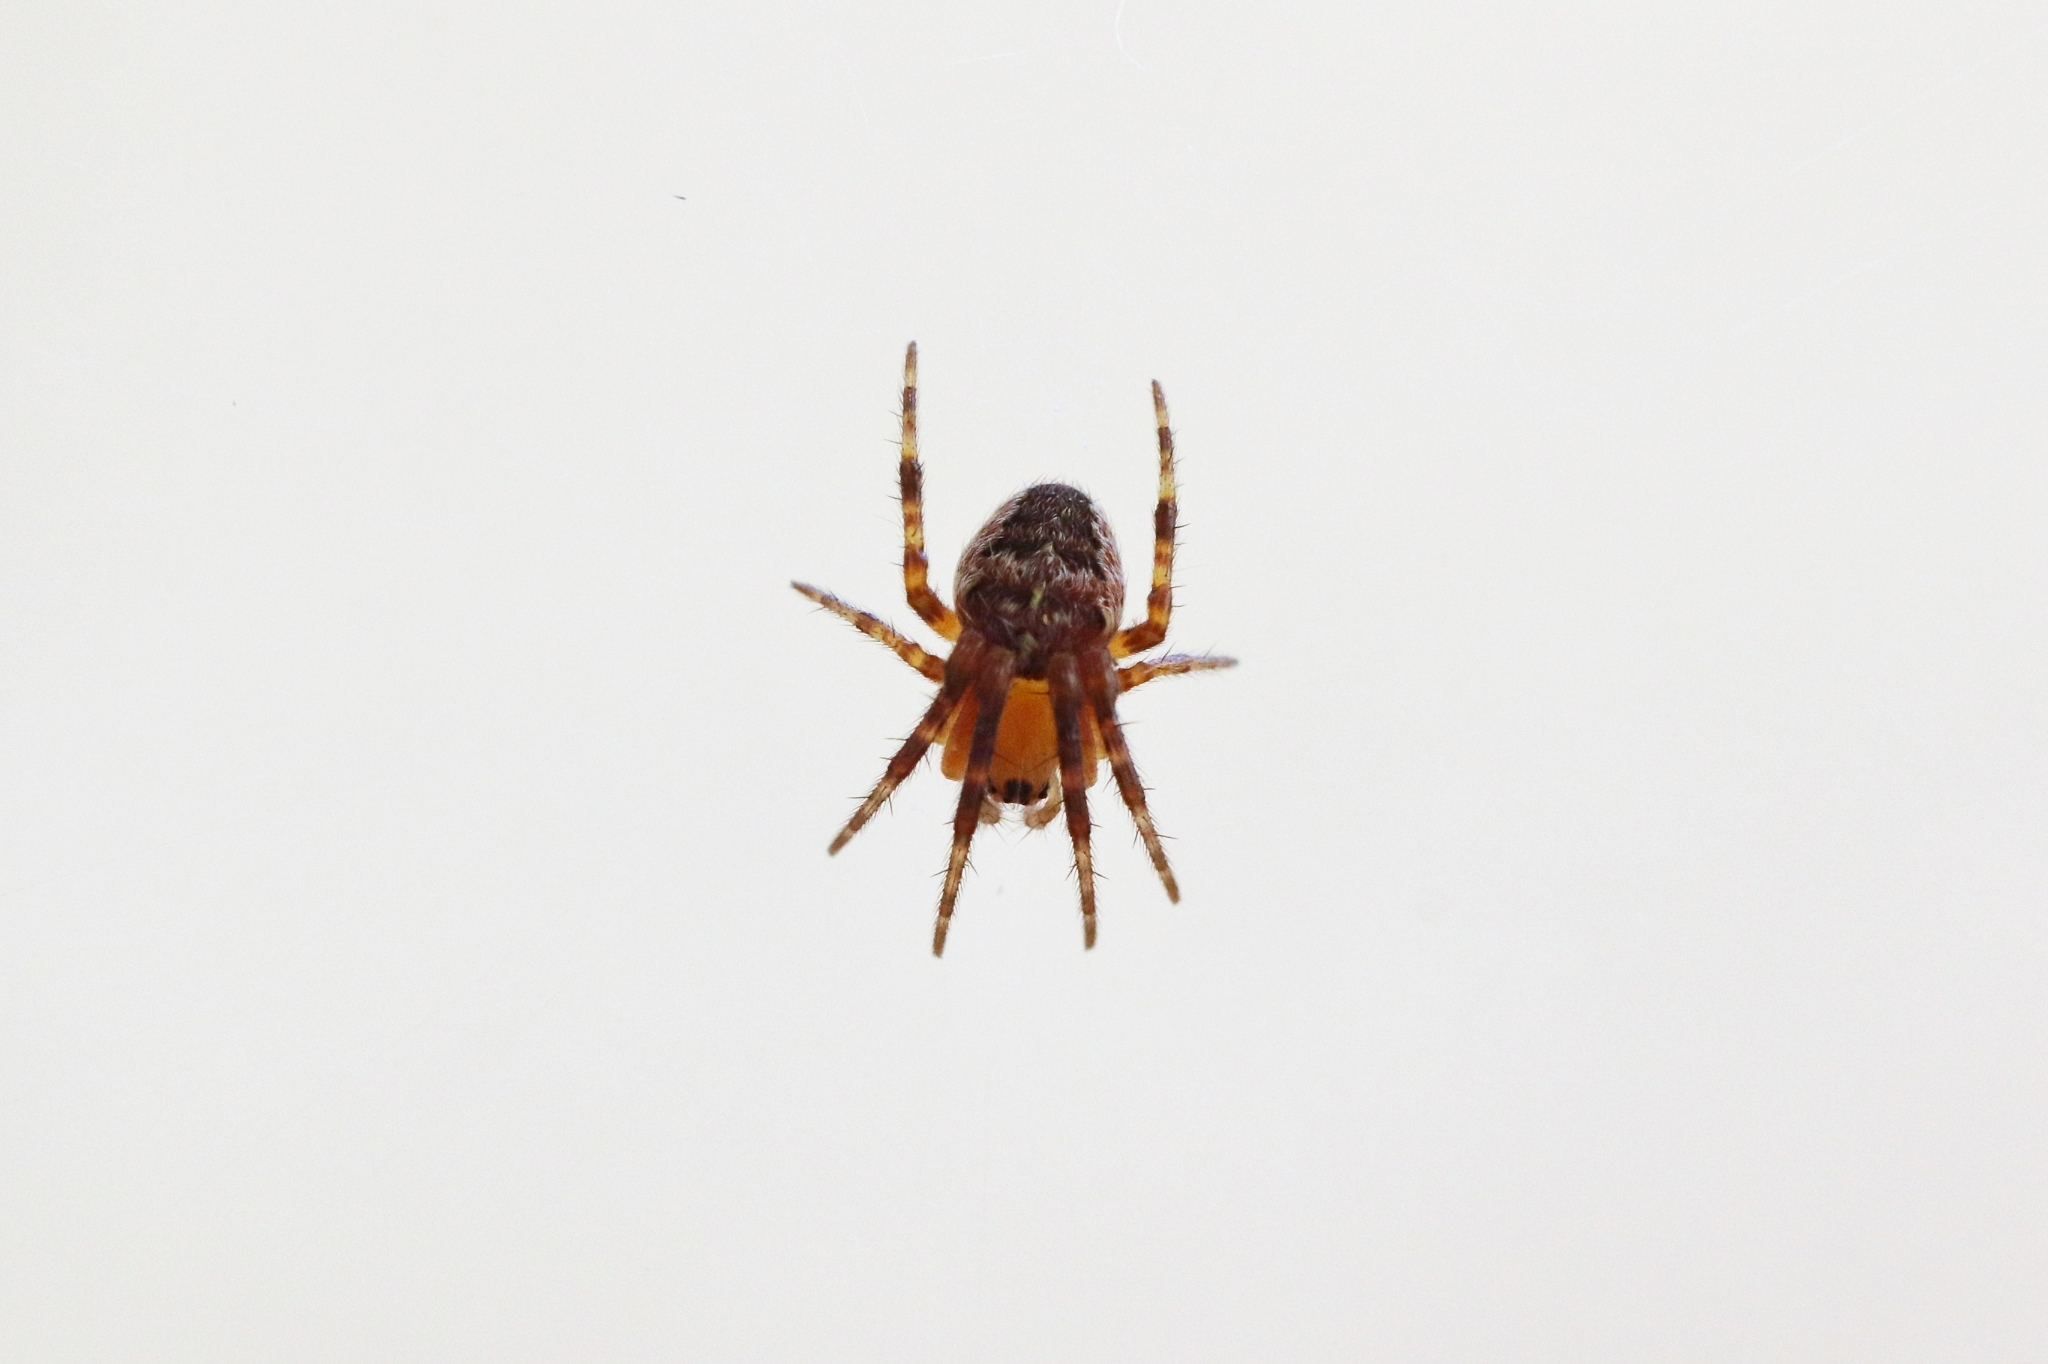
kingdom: Animalia
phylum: Arthropoda
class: Arachnida
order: Araneae
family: Araneidae
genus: Araneus
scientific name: Araneus diadematus
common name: Cross orbweaver
